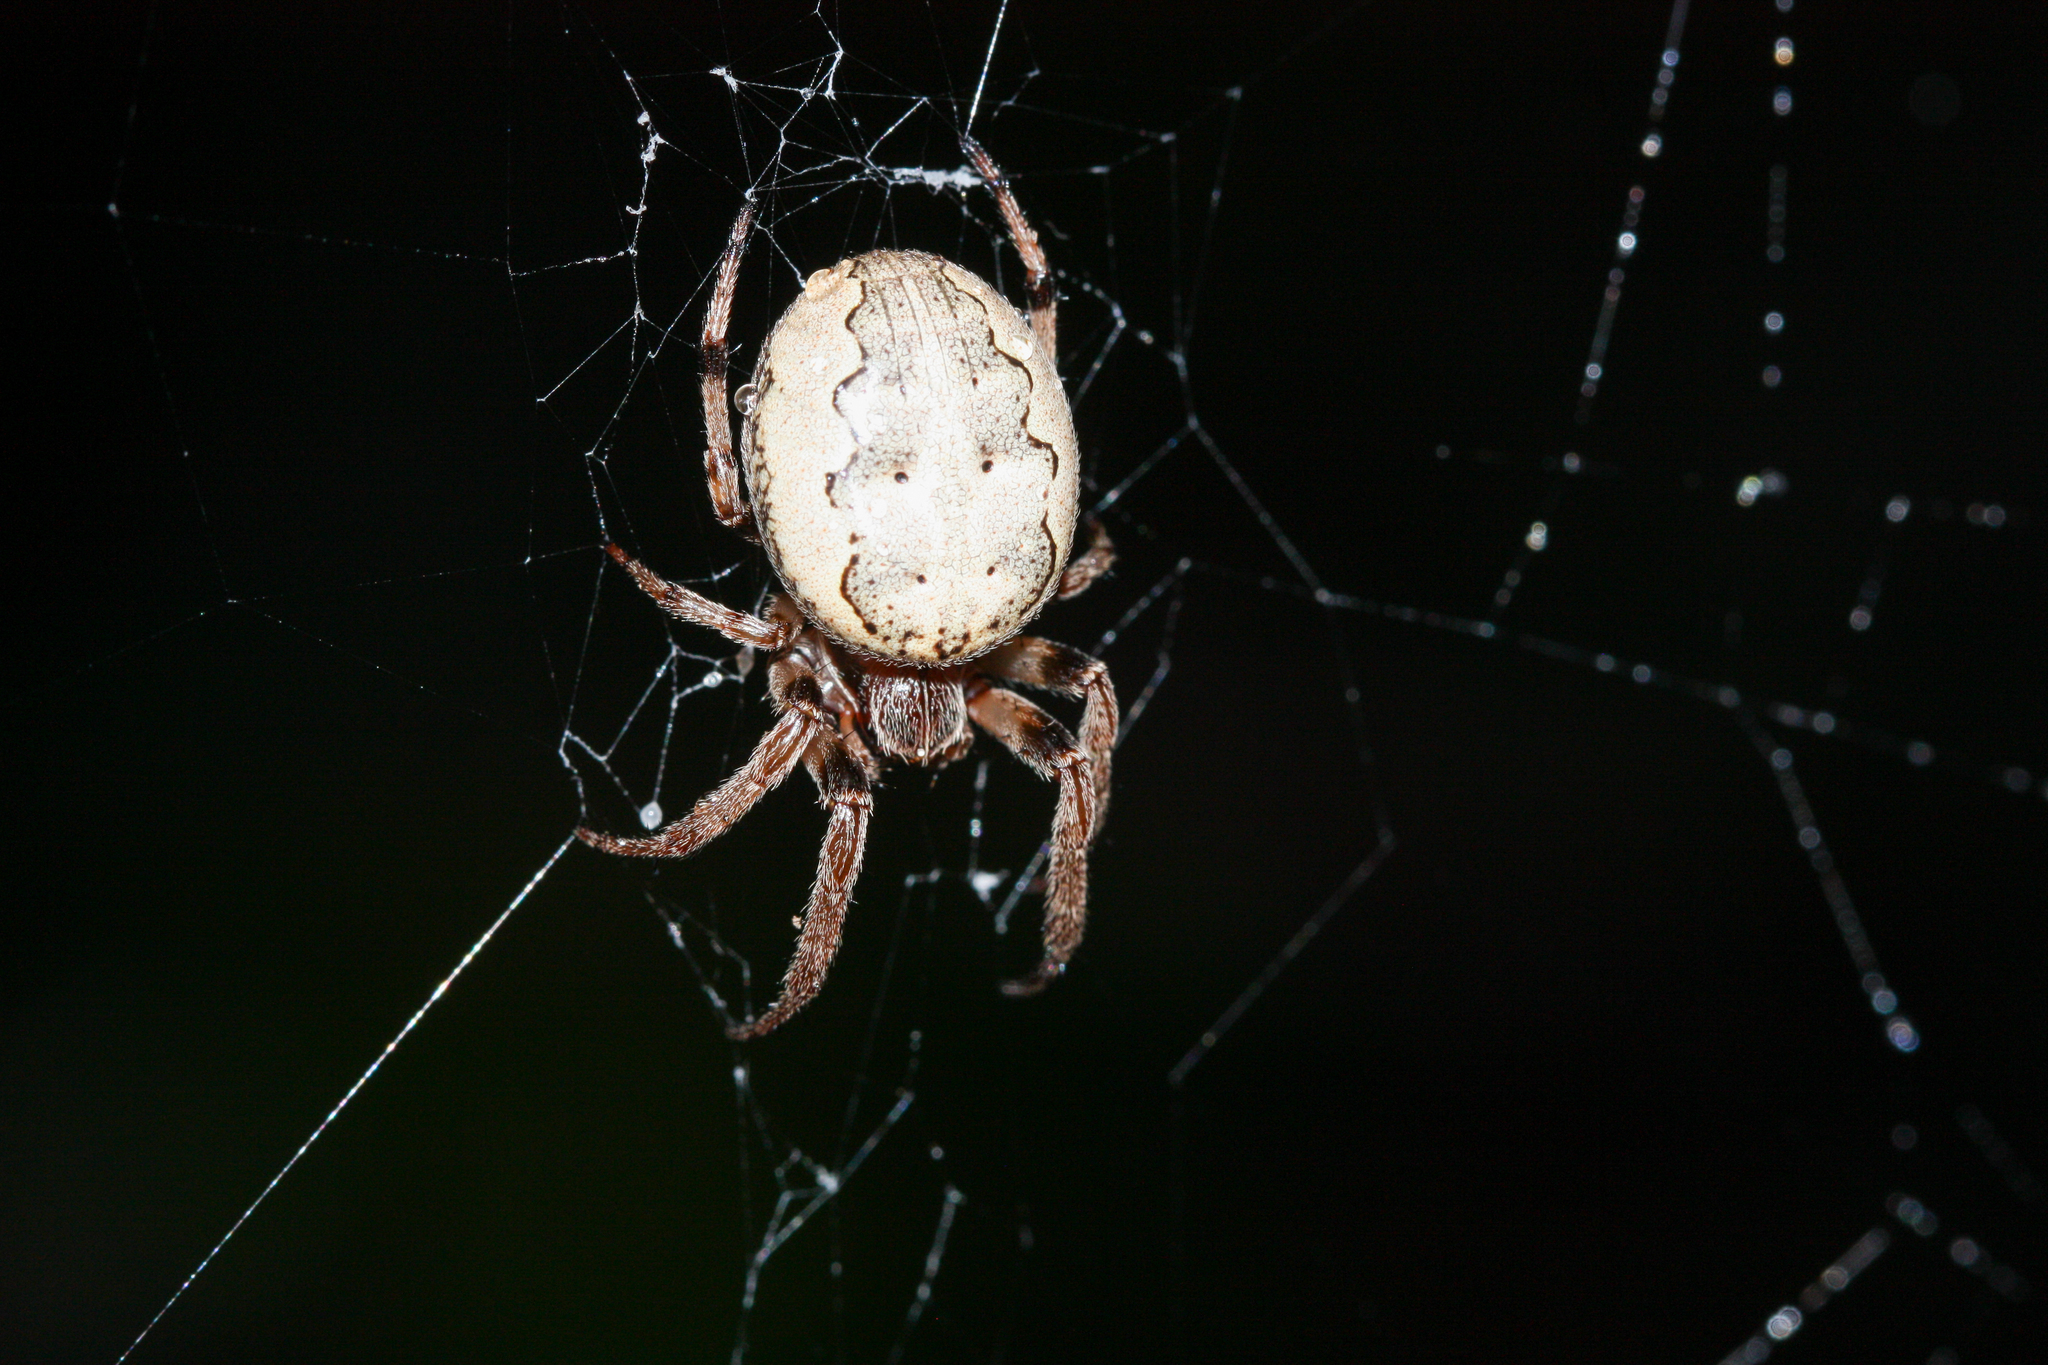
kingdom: Animalia
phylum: Arthropoda
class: Arachnida
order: Araneae
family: Araneidae
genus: Larinioides
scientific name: Larinioides cornutus
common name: Furrow orbweaver
